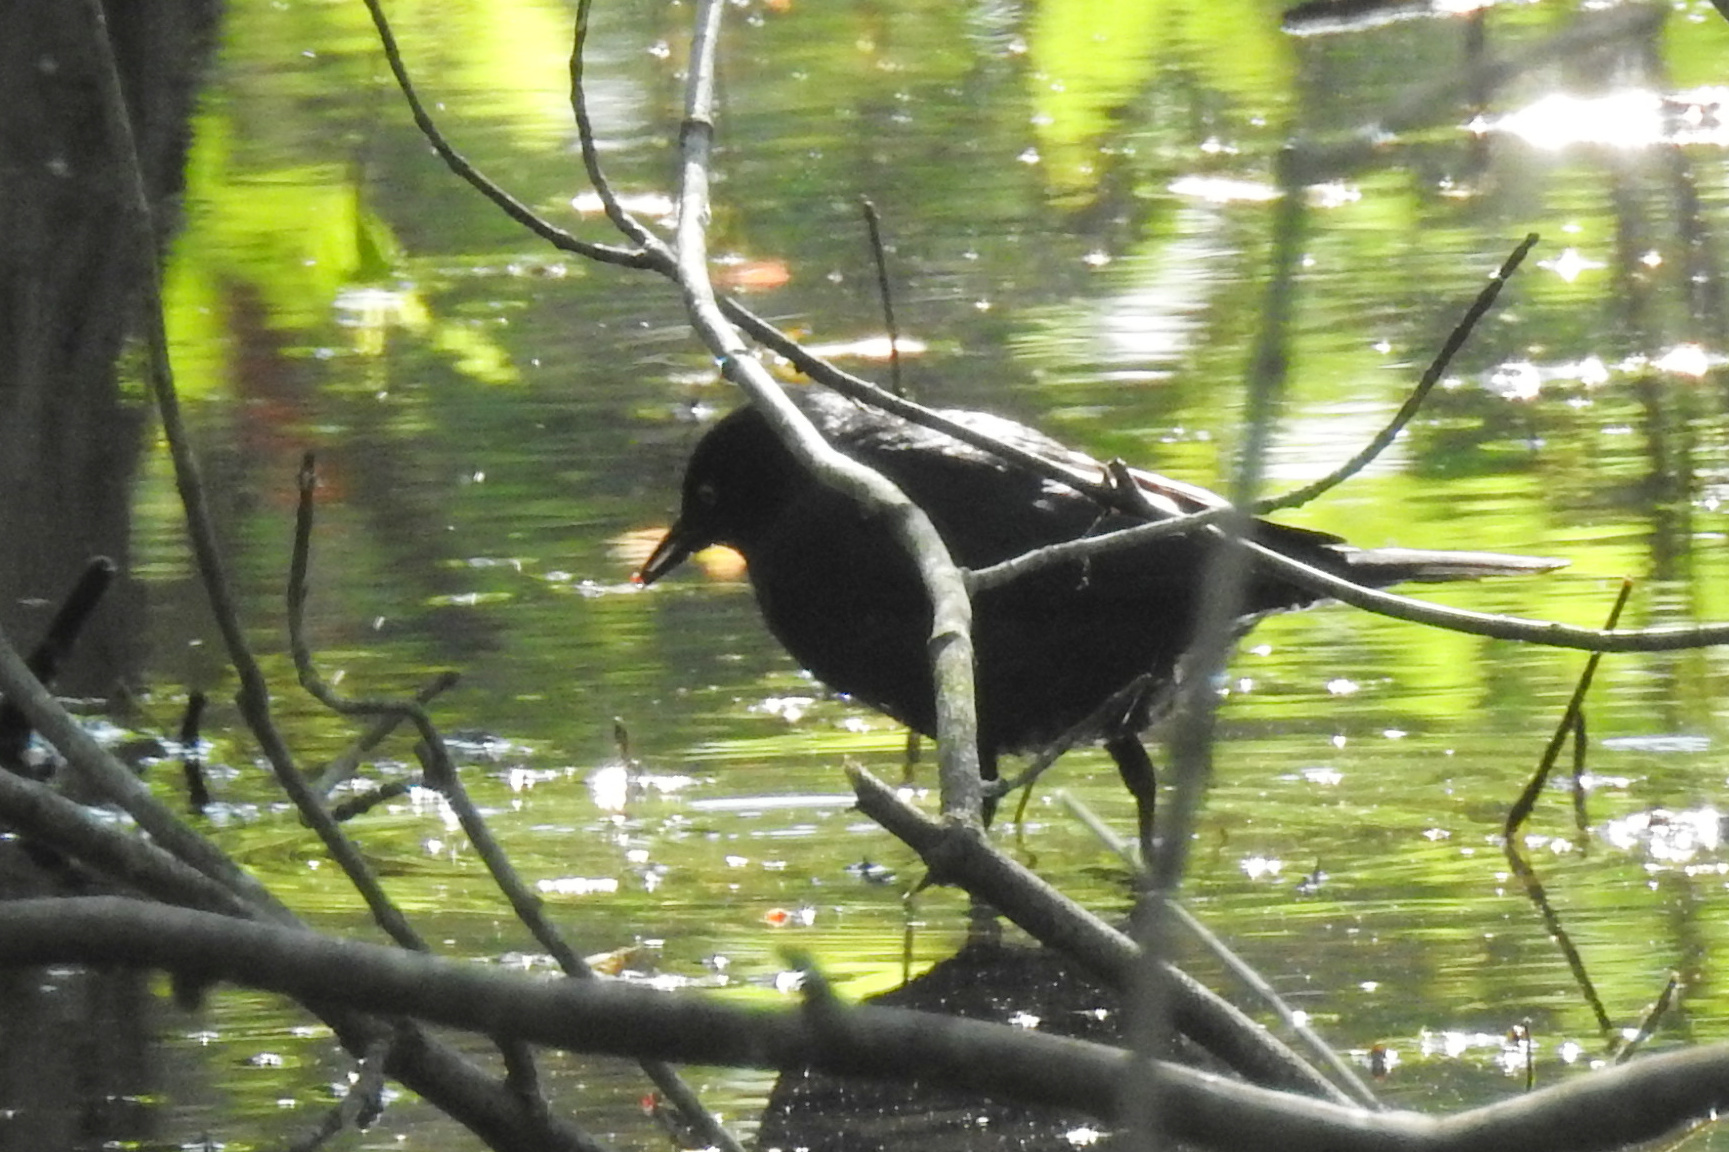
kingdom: Animalia
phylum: Chordata
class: Aves
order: Passeriformes
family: Icteridae
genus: Euphagus
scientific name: Euphagus carolinus
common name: Rusty blackbird
